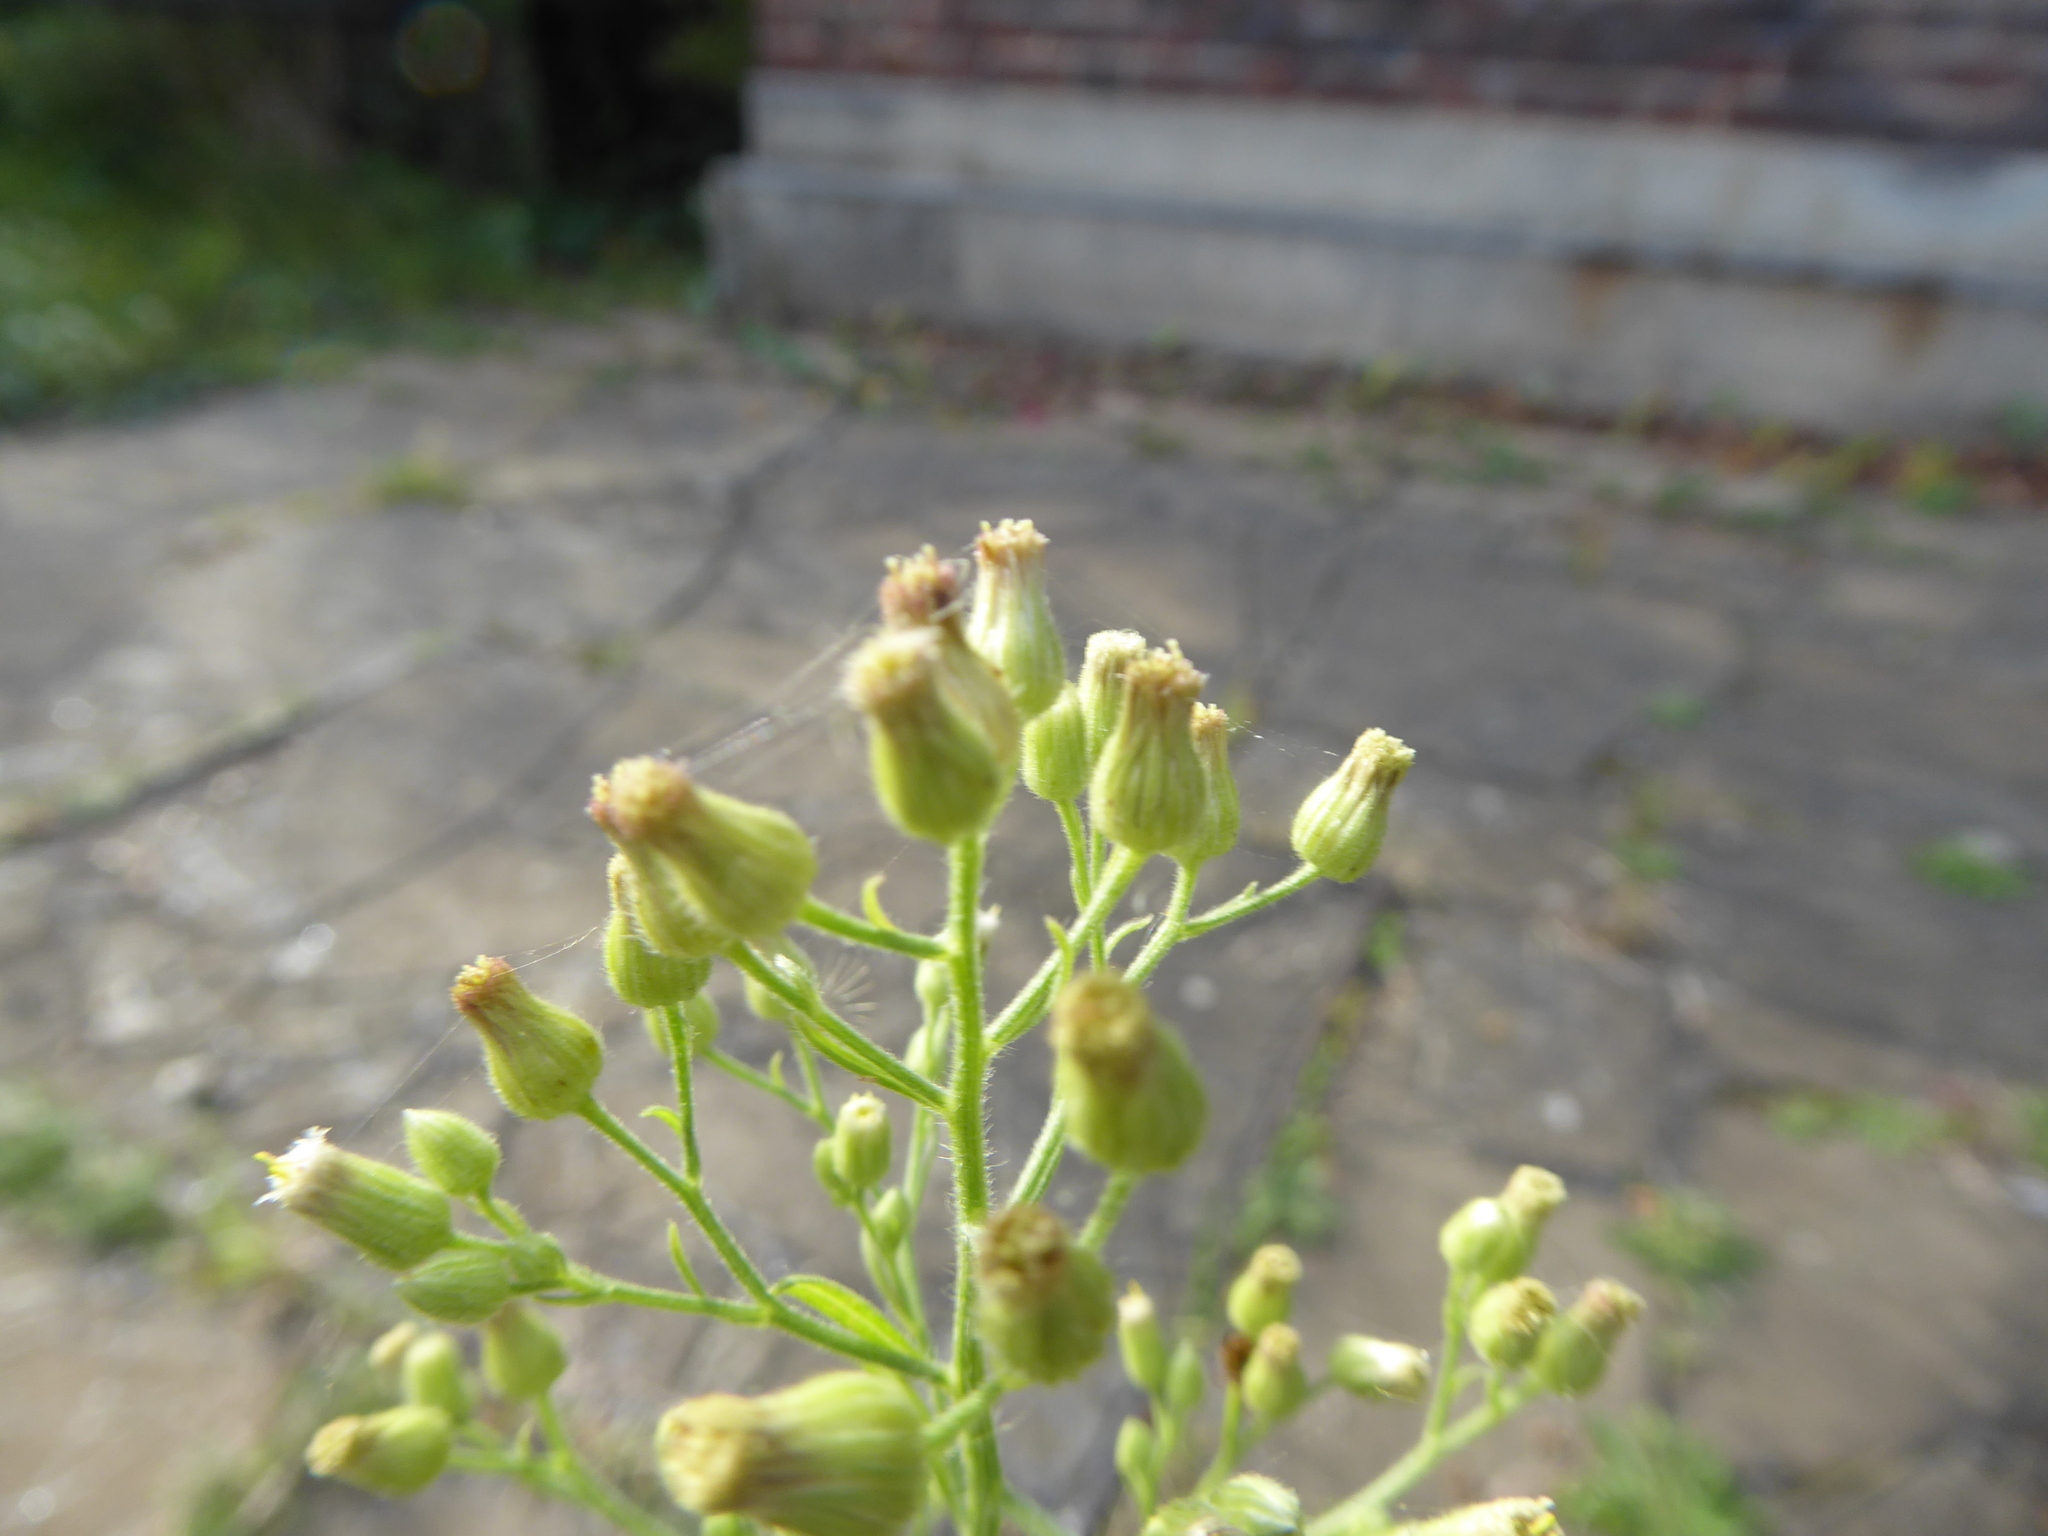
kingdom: Plantae
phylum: Tracheophyta
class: Magnoliopsida
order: Asterales
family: Asteraceae
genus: Erigeron
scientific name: Erigeron sumatrensis
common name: Daisy
